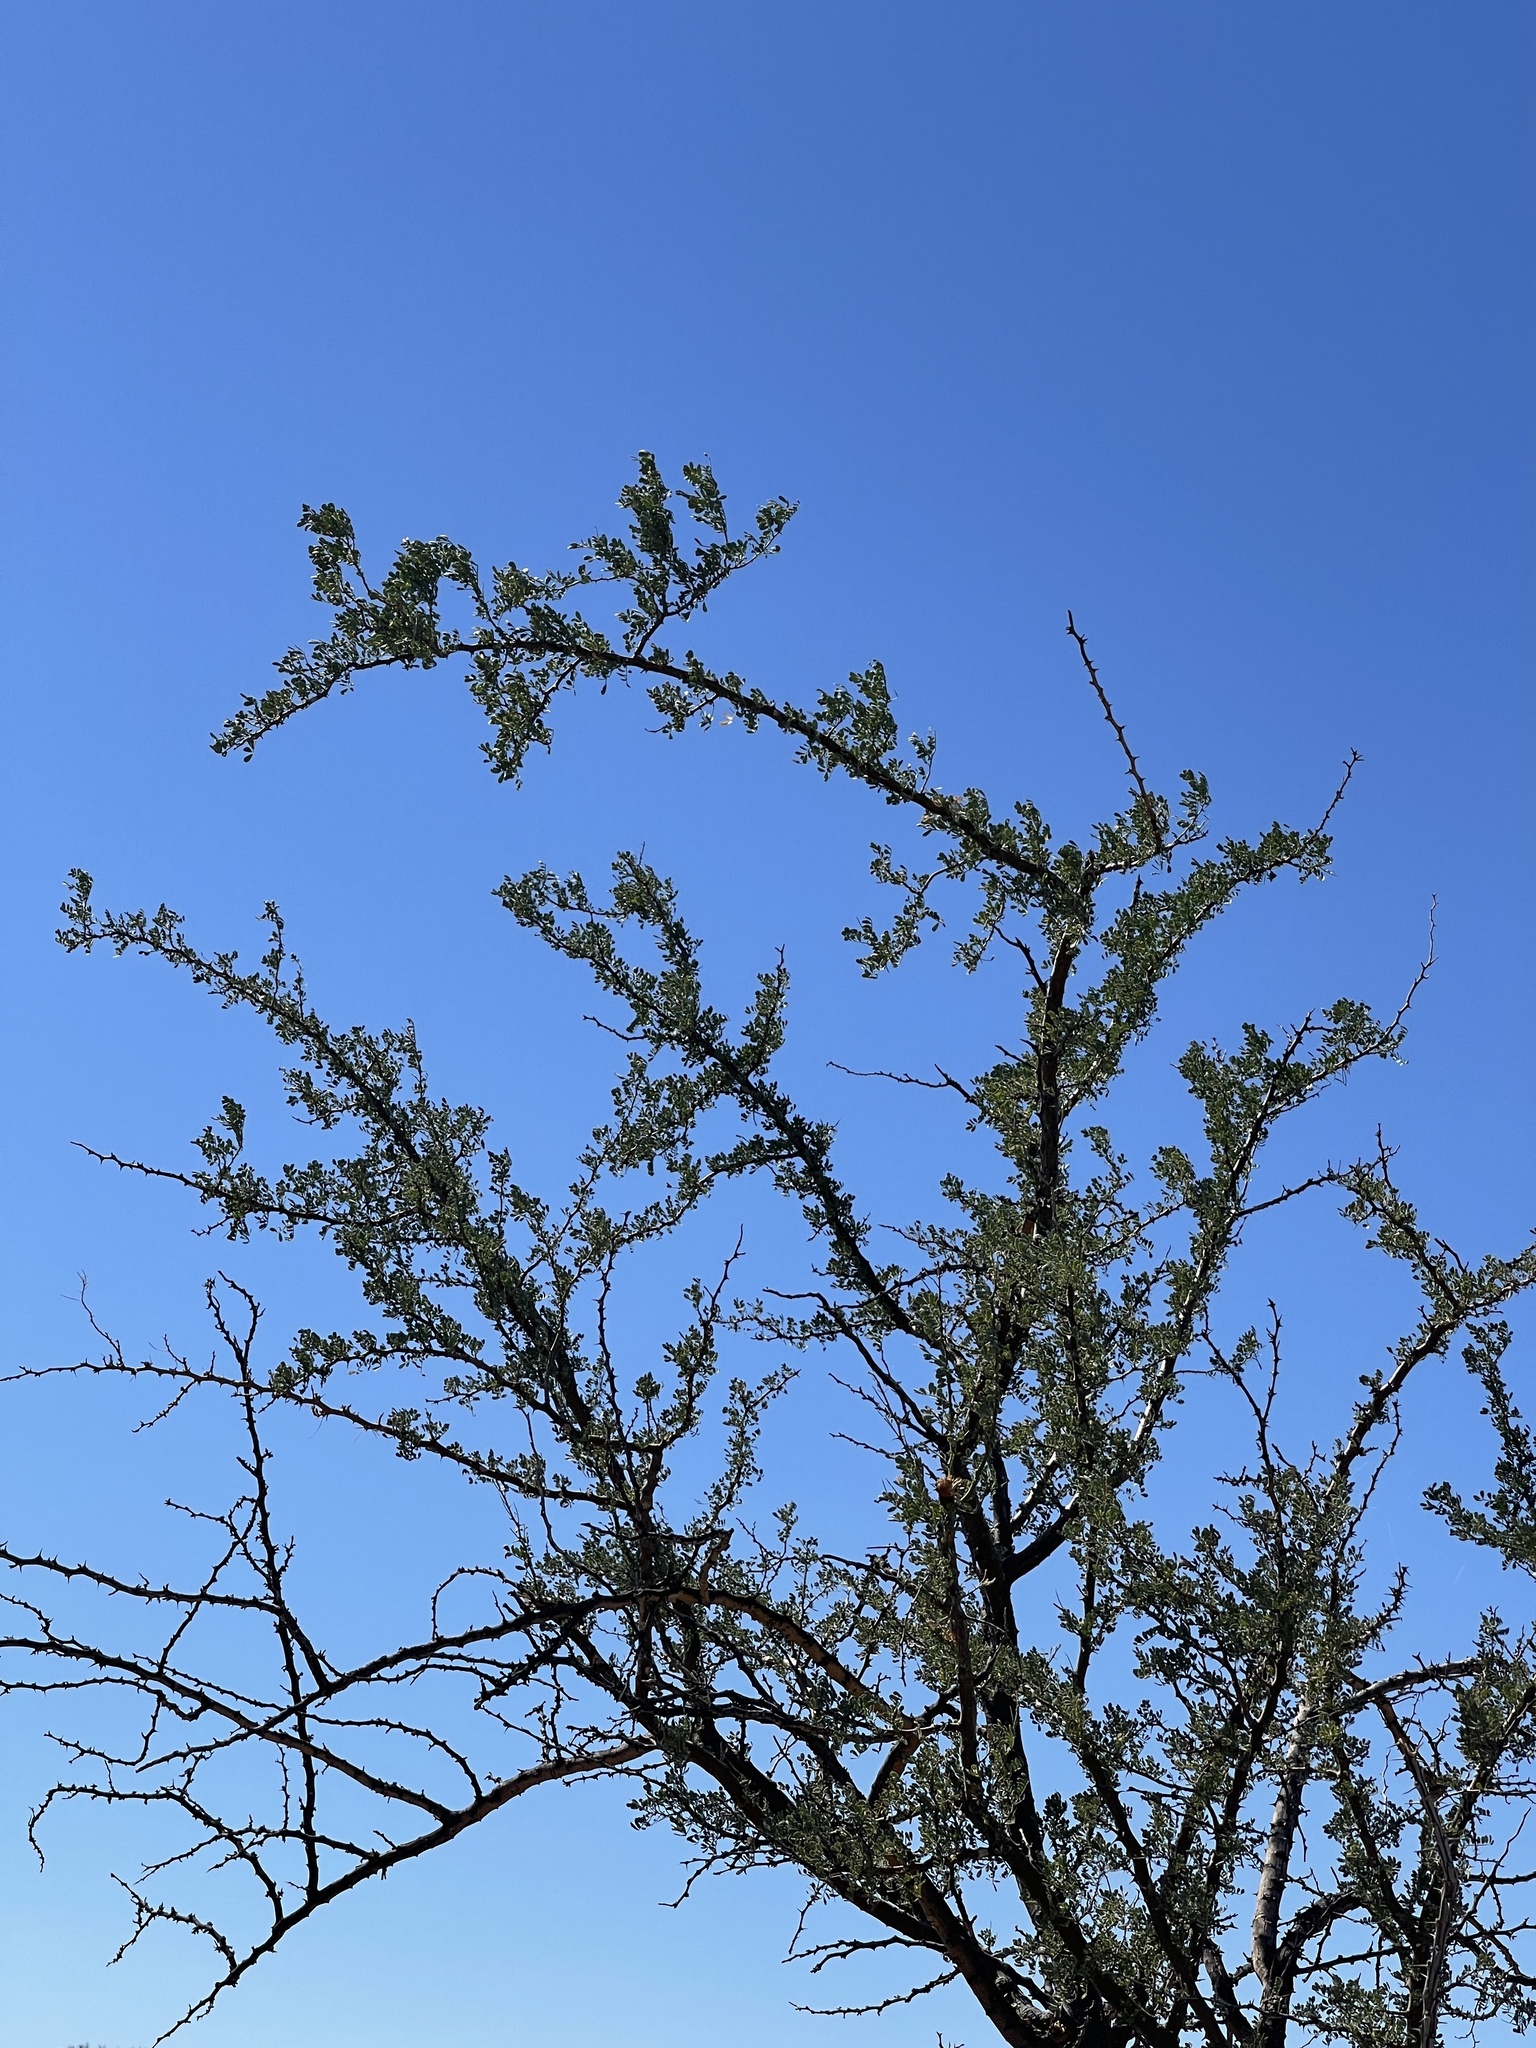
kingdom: Plantae
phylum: Tracheophyta
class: Magnoliopsida
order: Fabales
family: Fabaceae
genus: Olneya
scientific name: Olneya tesota
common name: Desert ironwood
